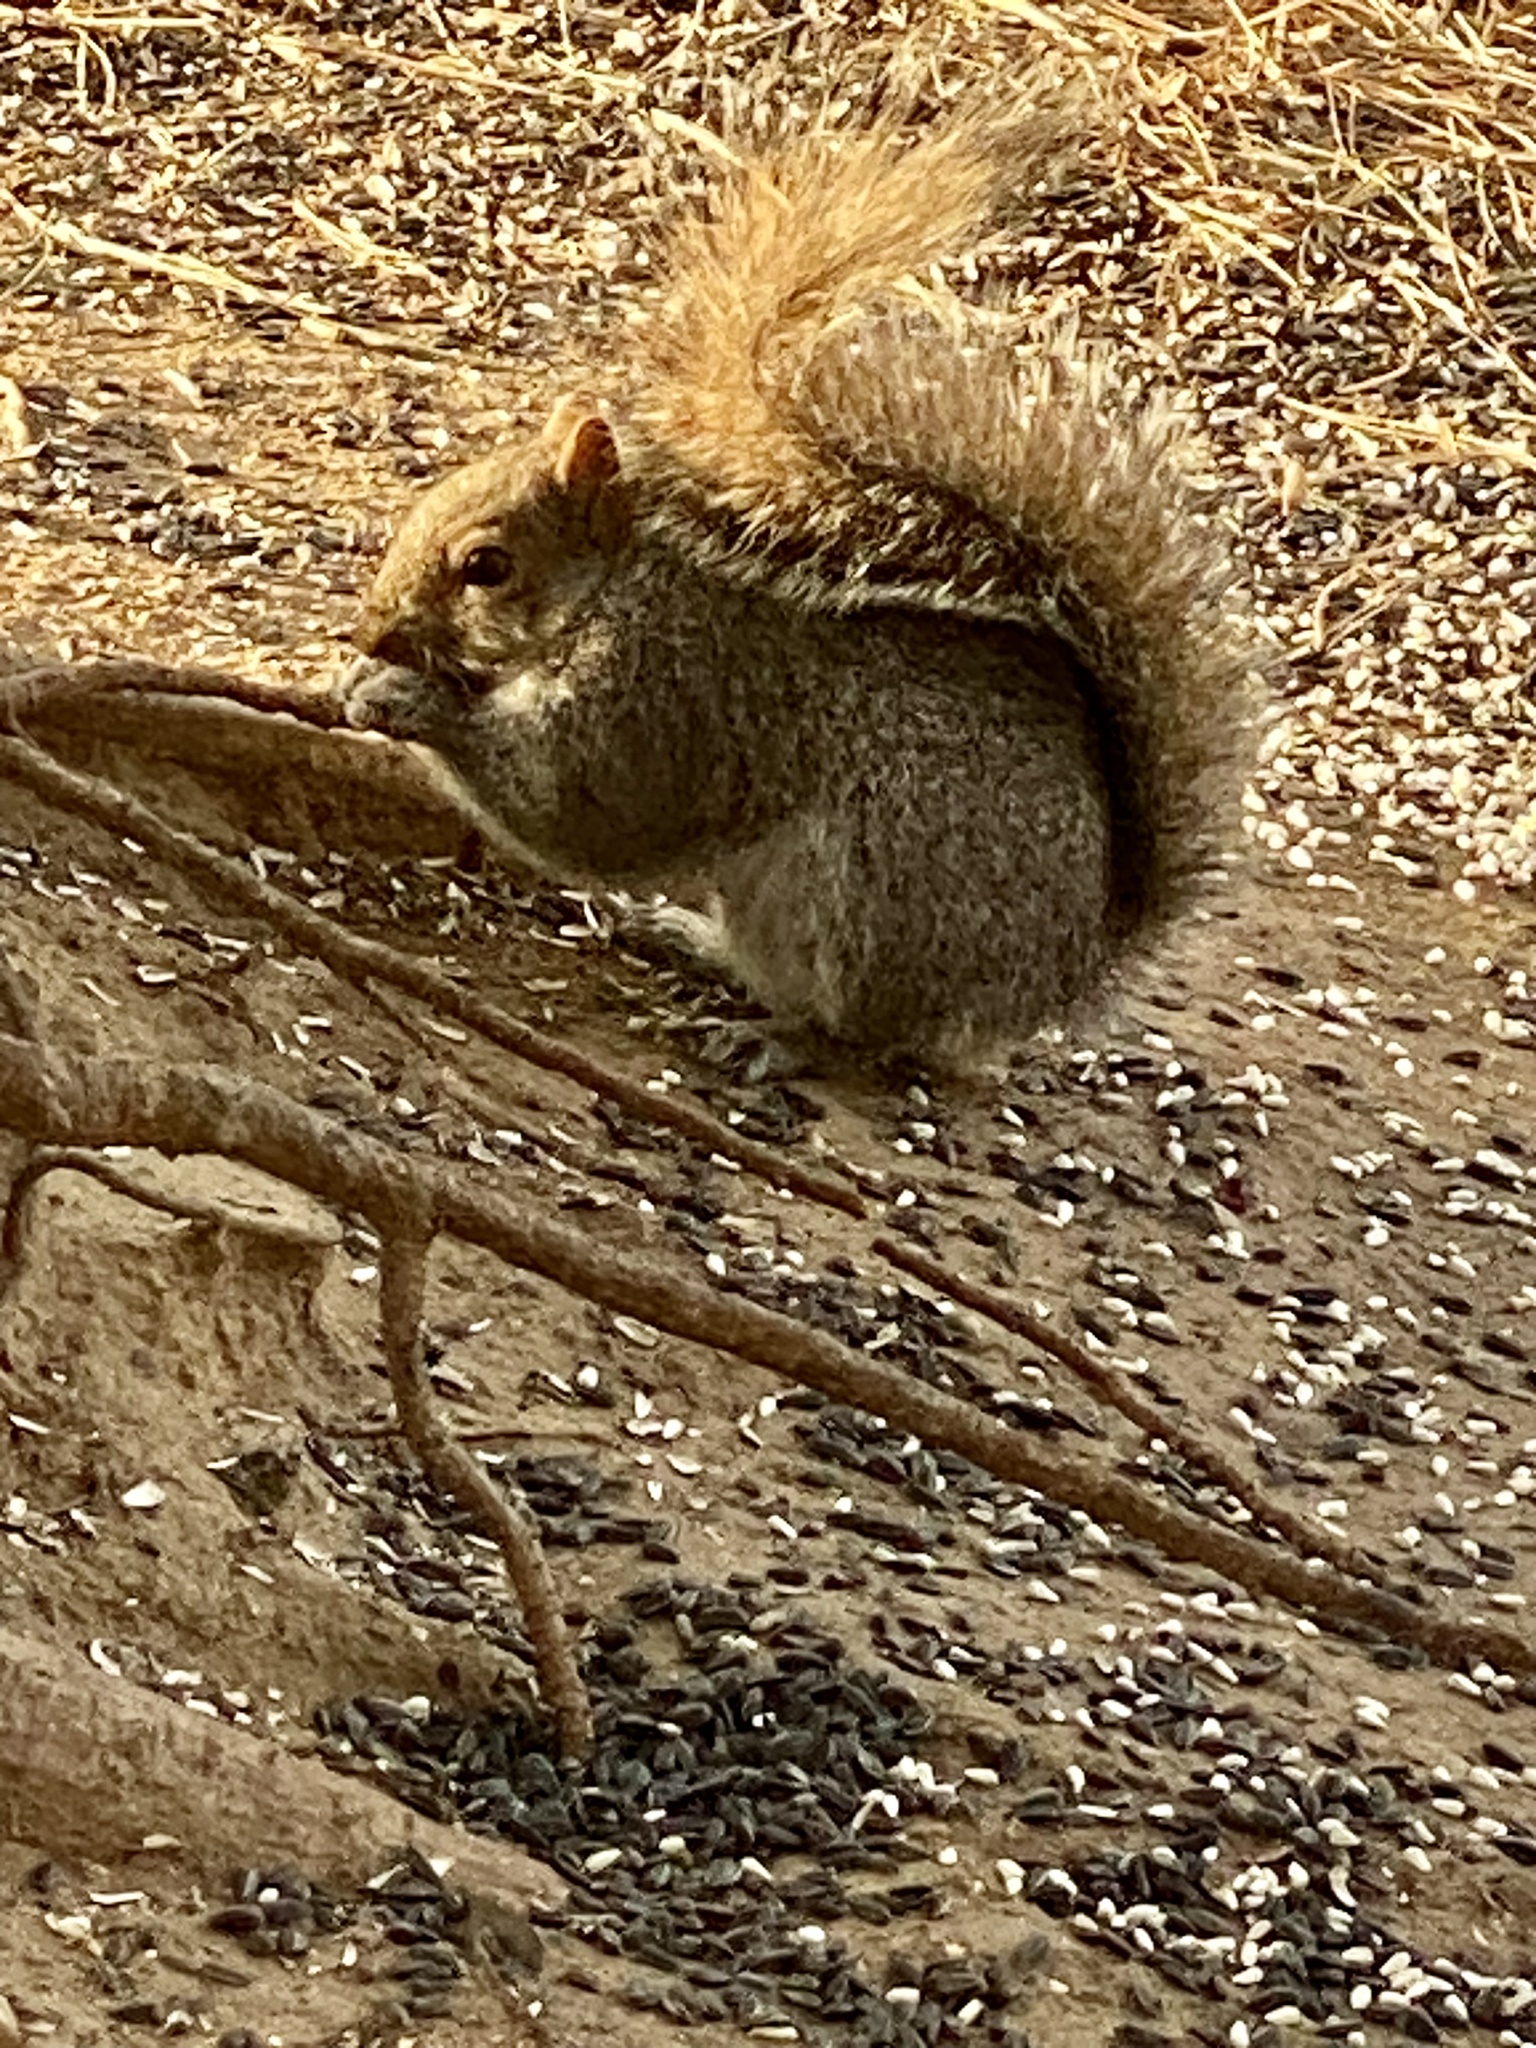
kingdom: Animalia
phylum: Chordata
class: Mammalia
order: Rodentia
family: Sciuridae
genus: Sciurus
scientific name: Sciurus carolinensis
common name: Eastern gray squirrel
